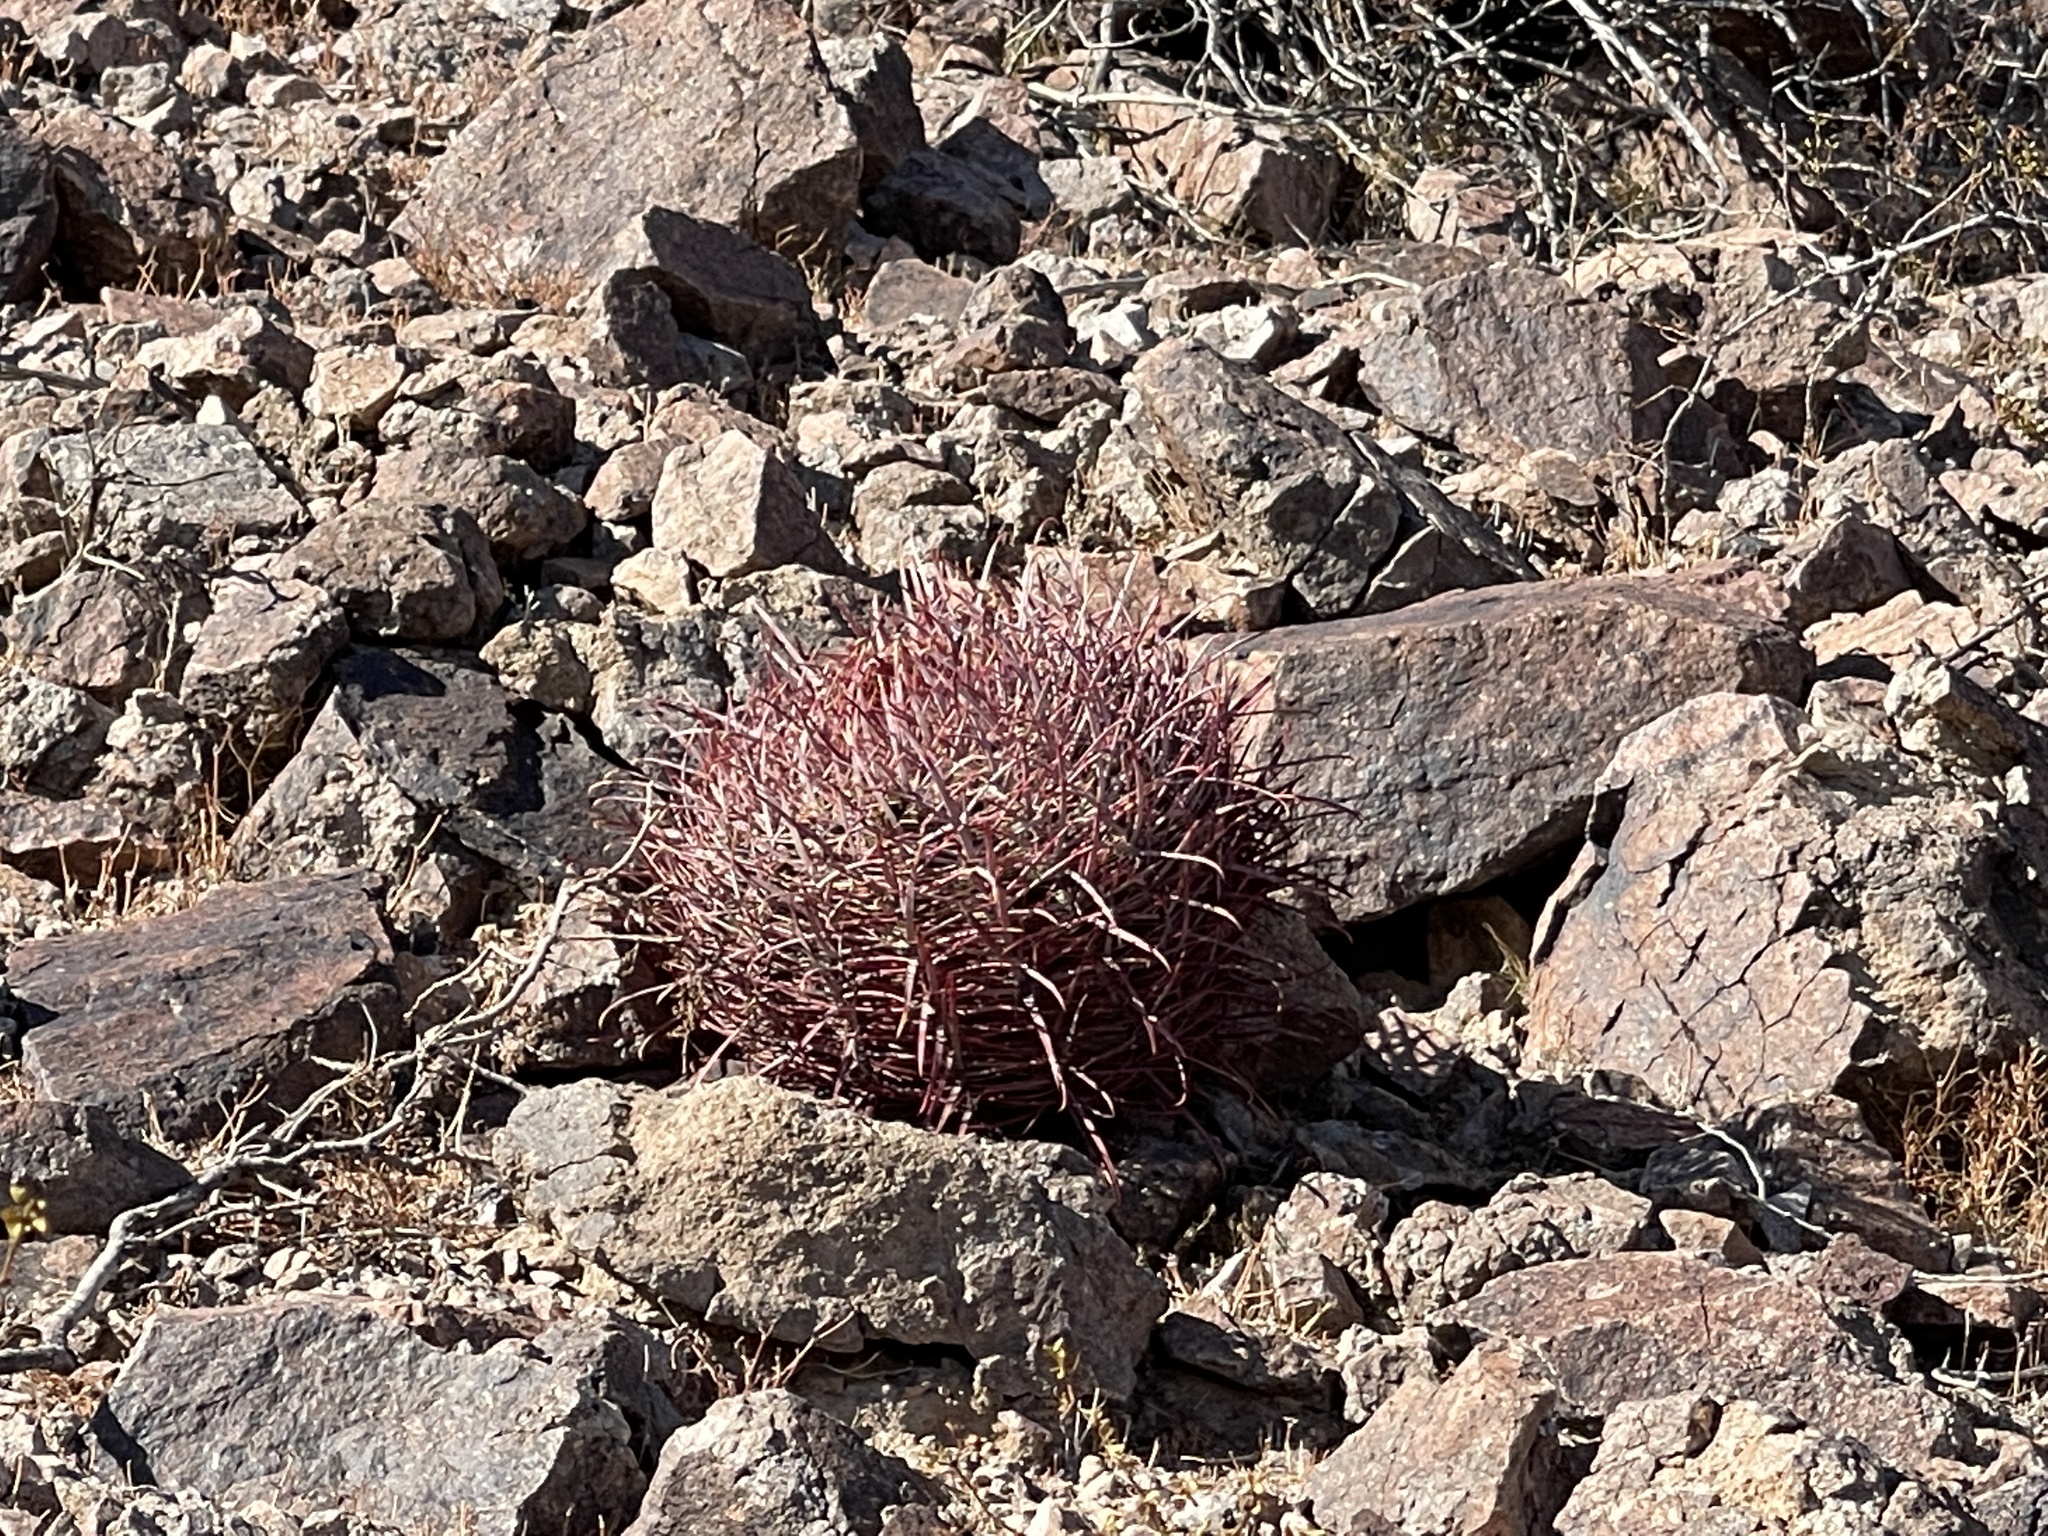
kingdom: Plantae
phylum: Tracheophyta
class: Magnoliopsida
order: Caryophyllales
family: Cactaceae
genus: Ferocactus
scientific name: Ferocactus cylindraceus
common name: California barrel cactus
